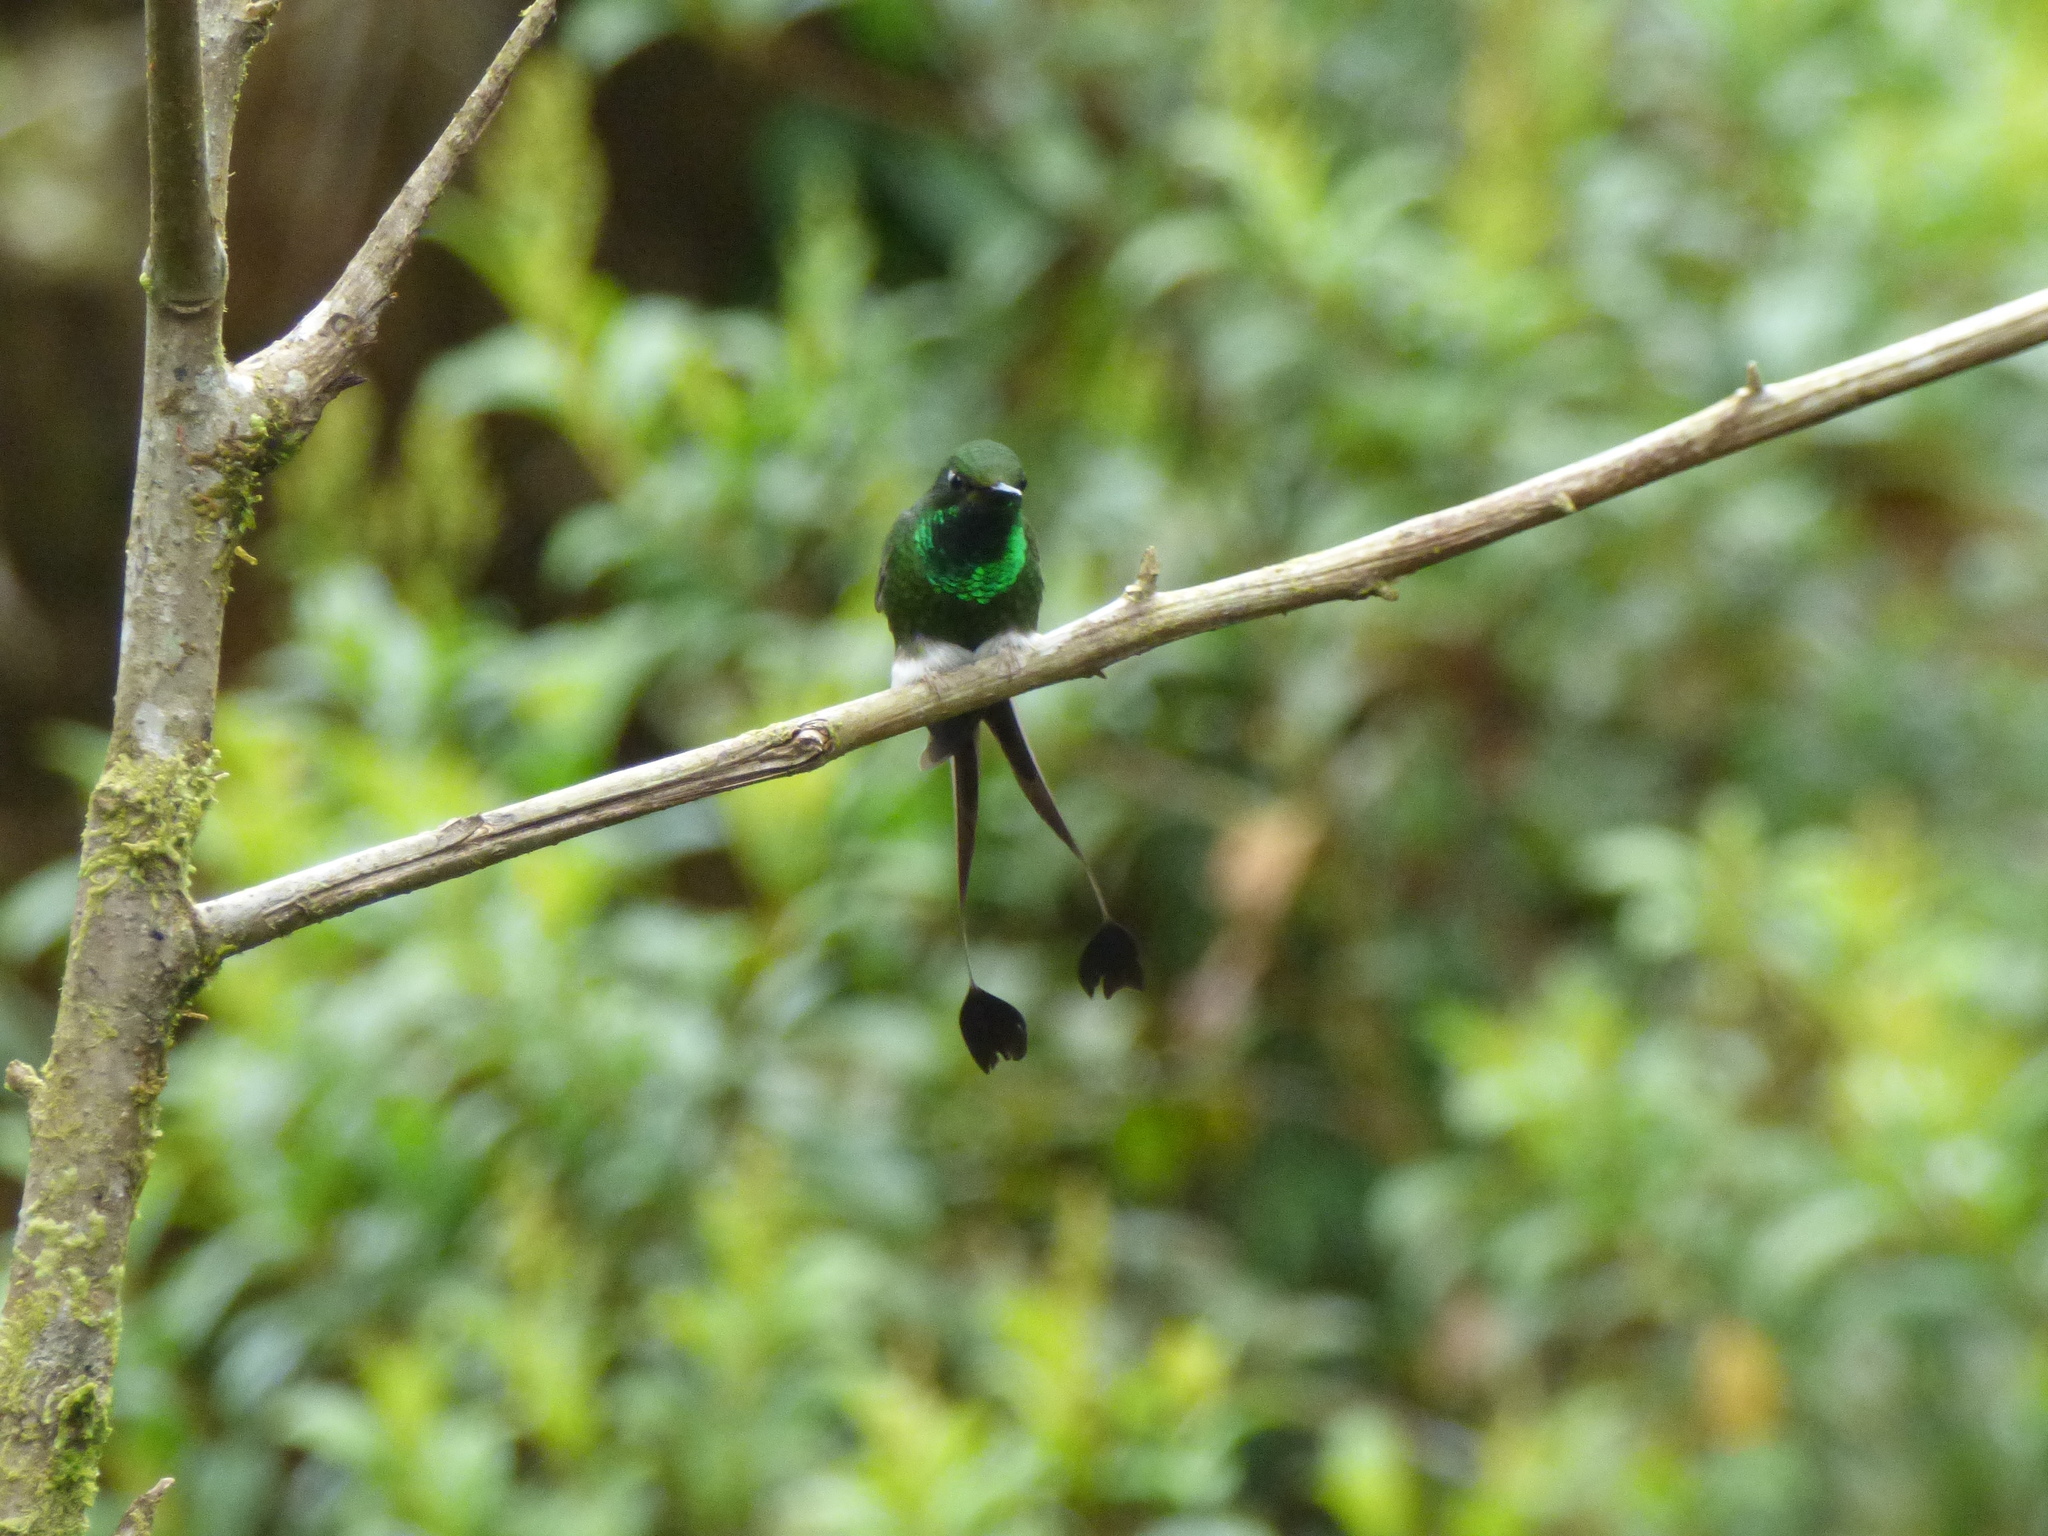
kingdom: Animalia
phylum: Chordata
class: Aves
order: Apodiformes
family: Trochilidae
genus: Ocreatus
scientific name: Ocreatus underwoodii
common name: Booted racket-tail
